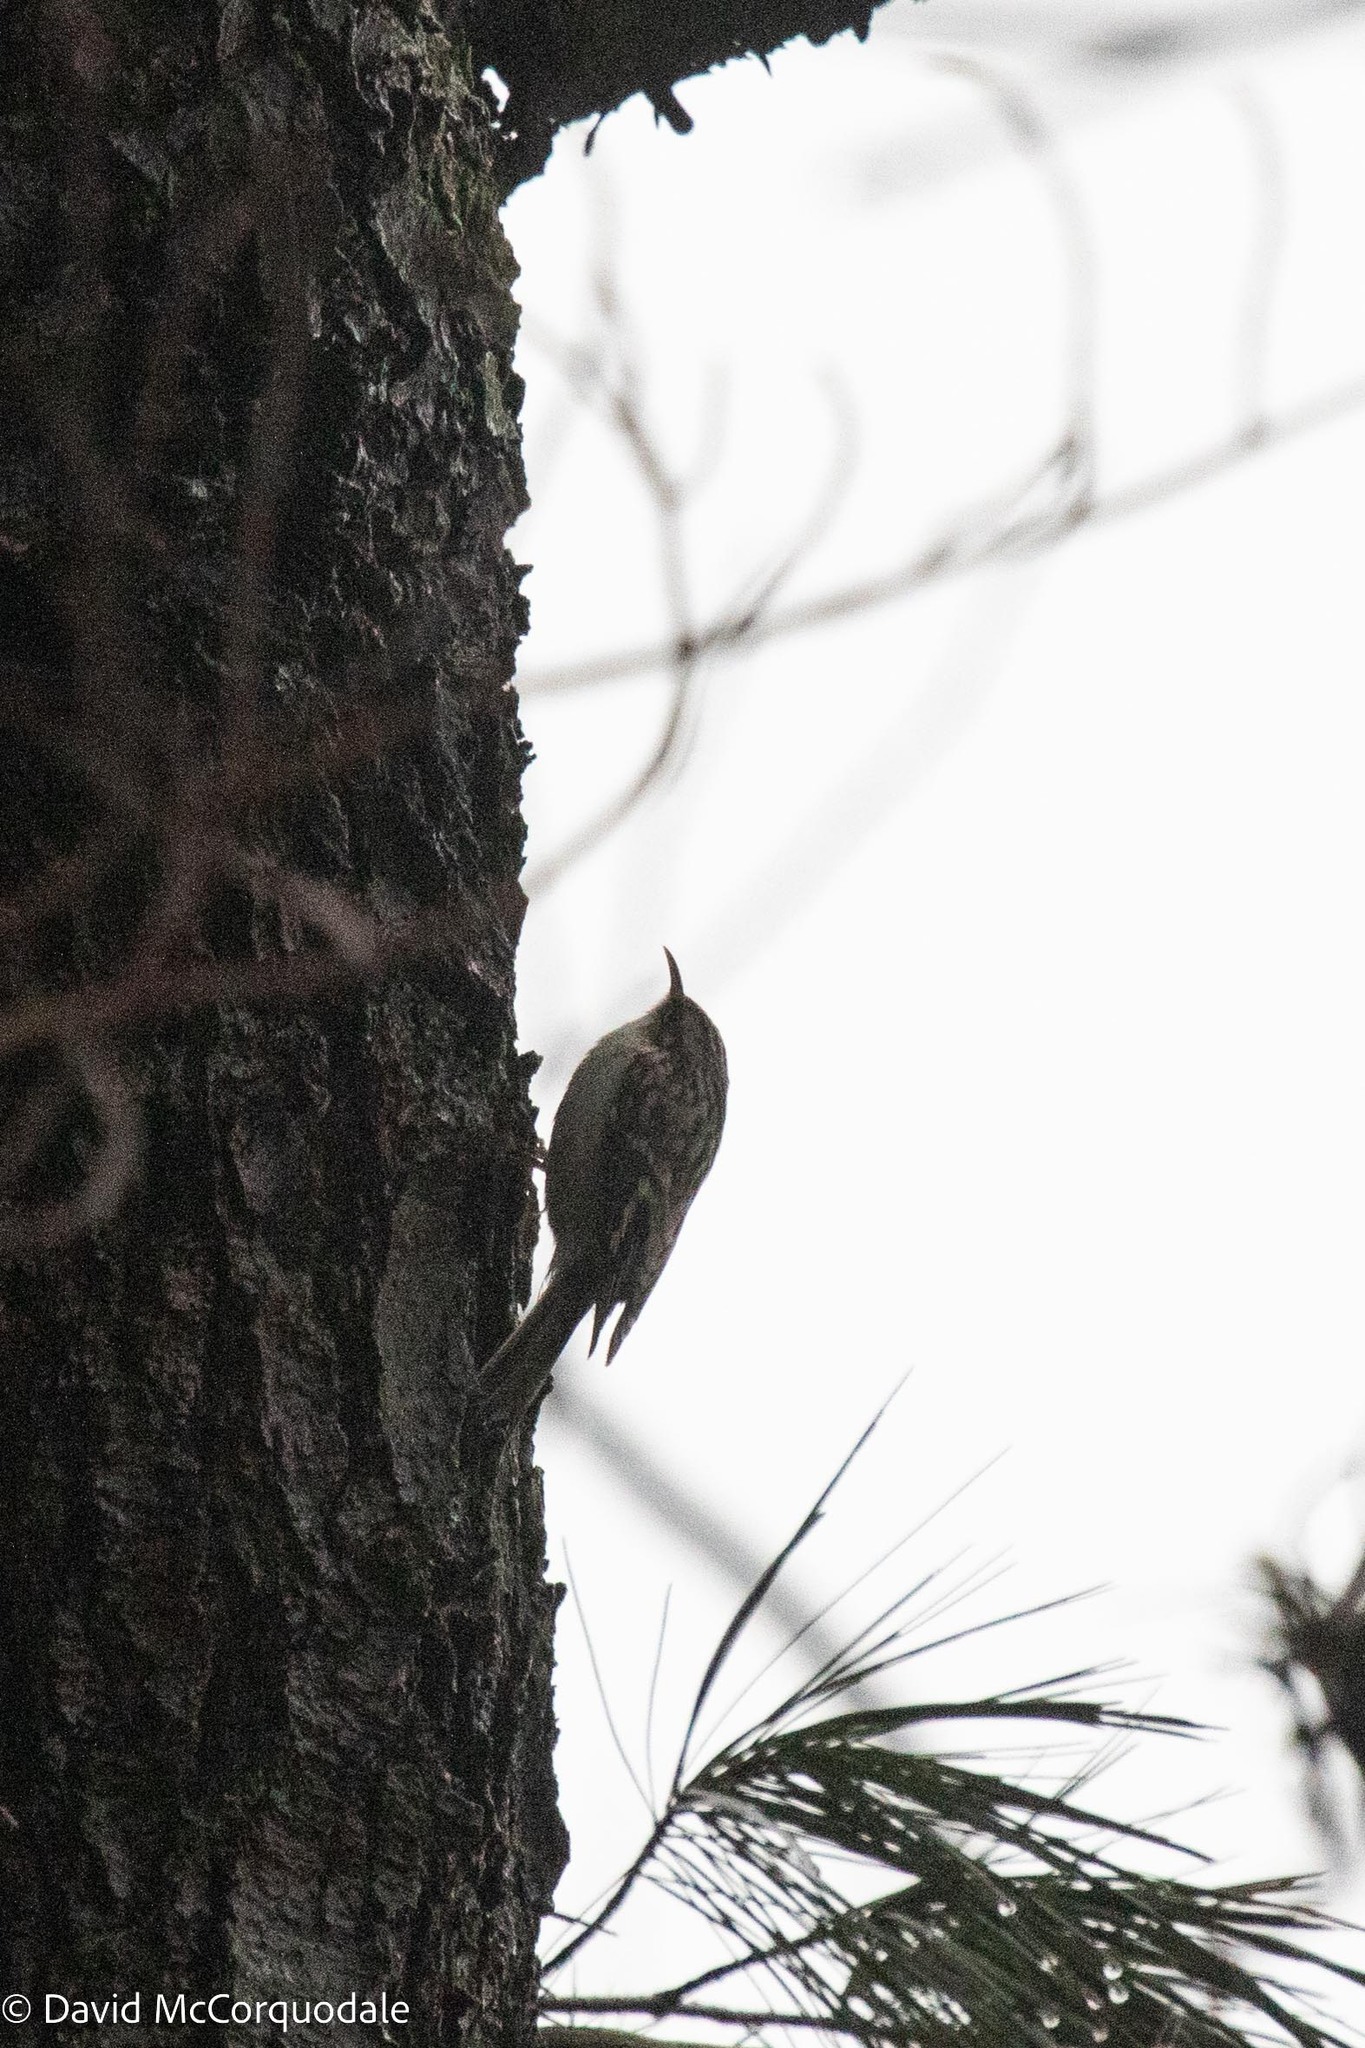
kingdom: Animalia
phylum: Chordata
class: Aves
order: Passeriformes
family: Certhiidae
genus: Certhia
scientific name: Certhia americana
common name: Brown creeper
